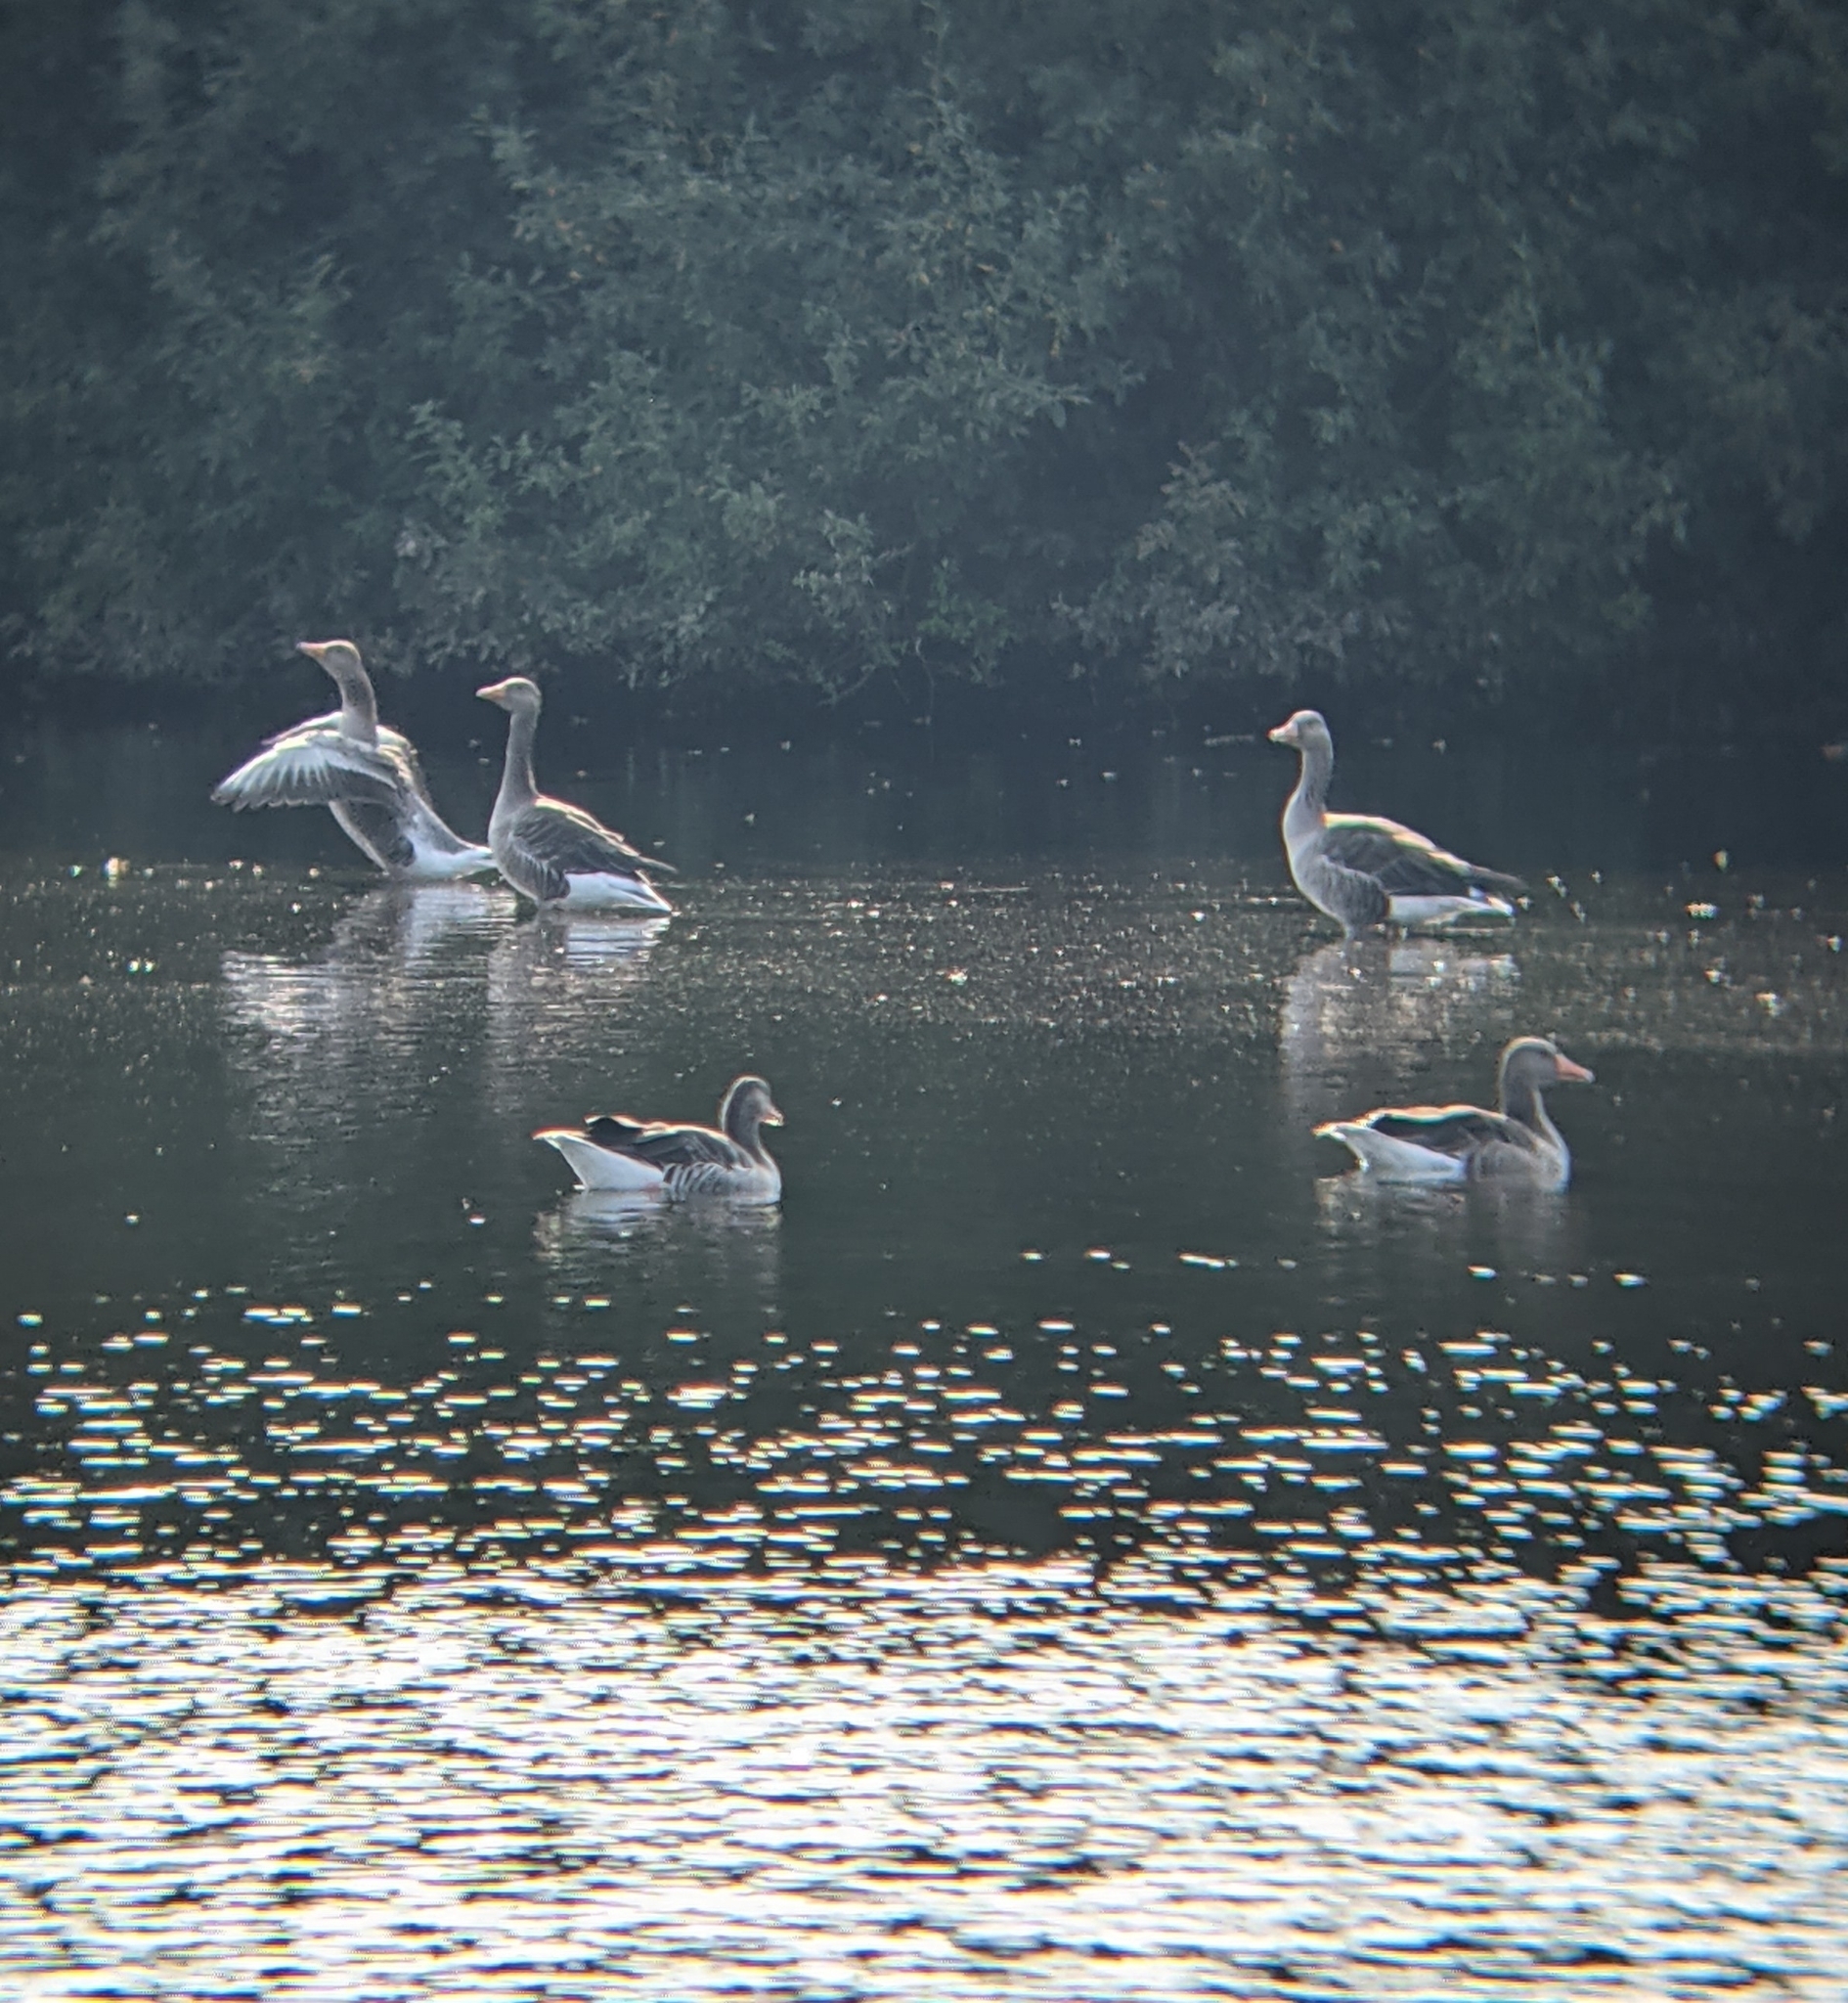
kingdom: Animalia
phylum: Chordata
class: Aves
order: Anseriformes
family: Anatidae
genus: Anser
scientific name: Anser anser
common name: Greylag goose
